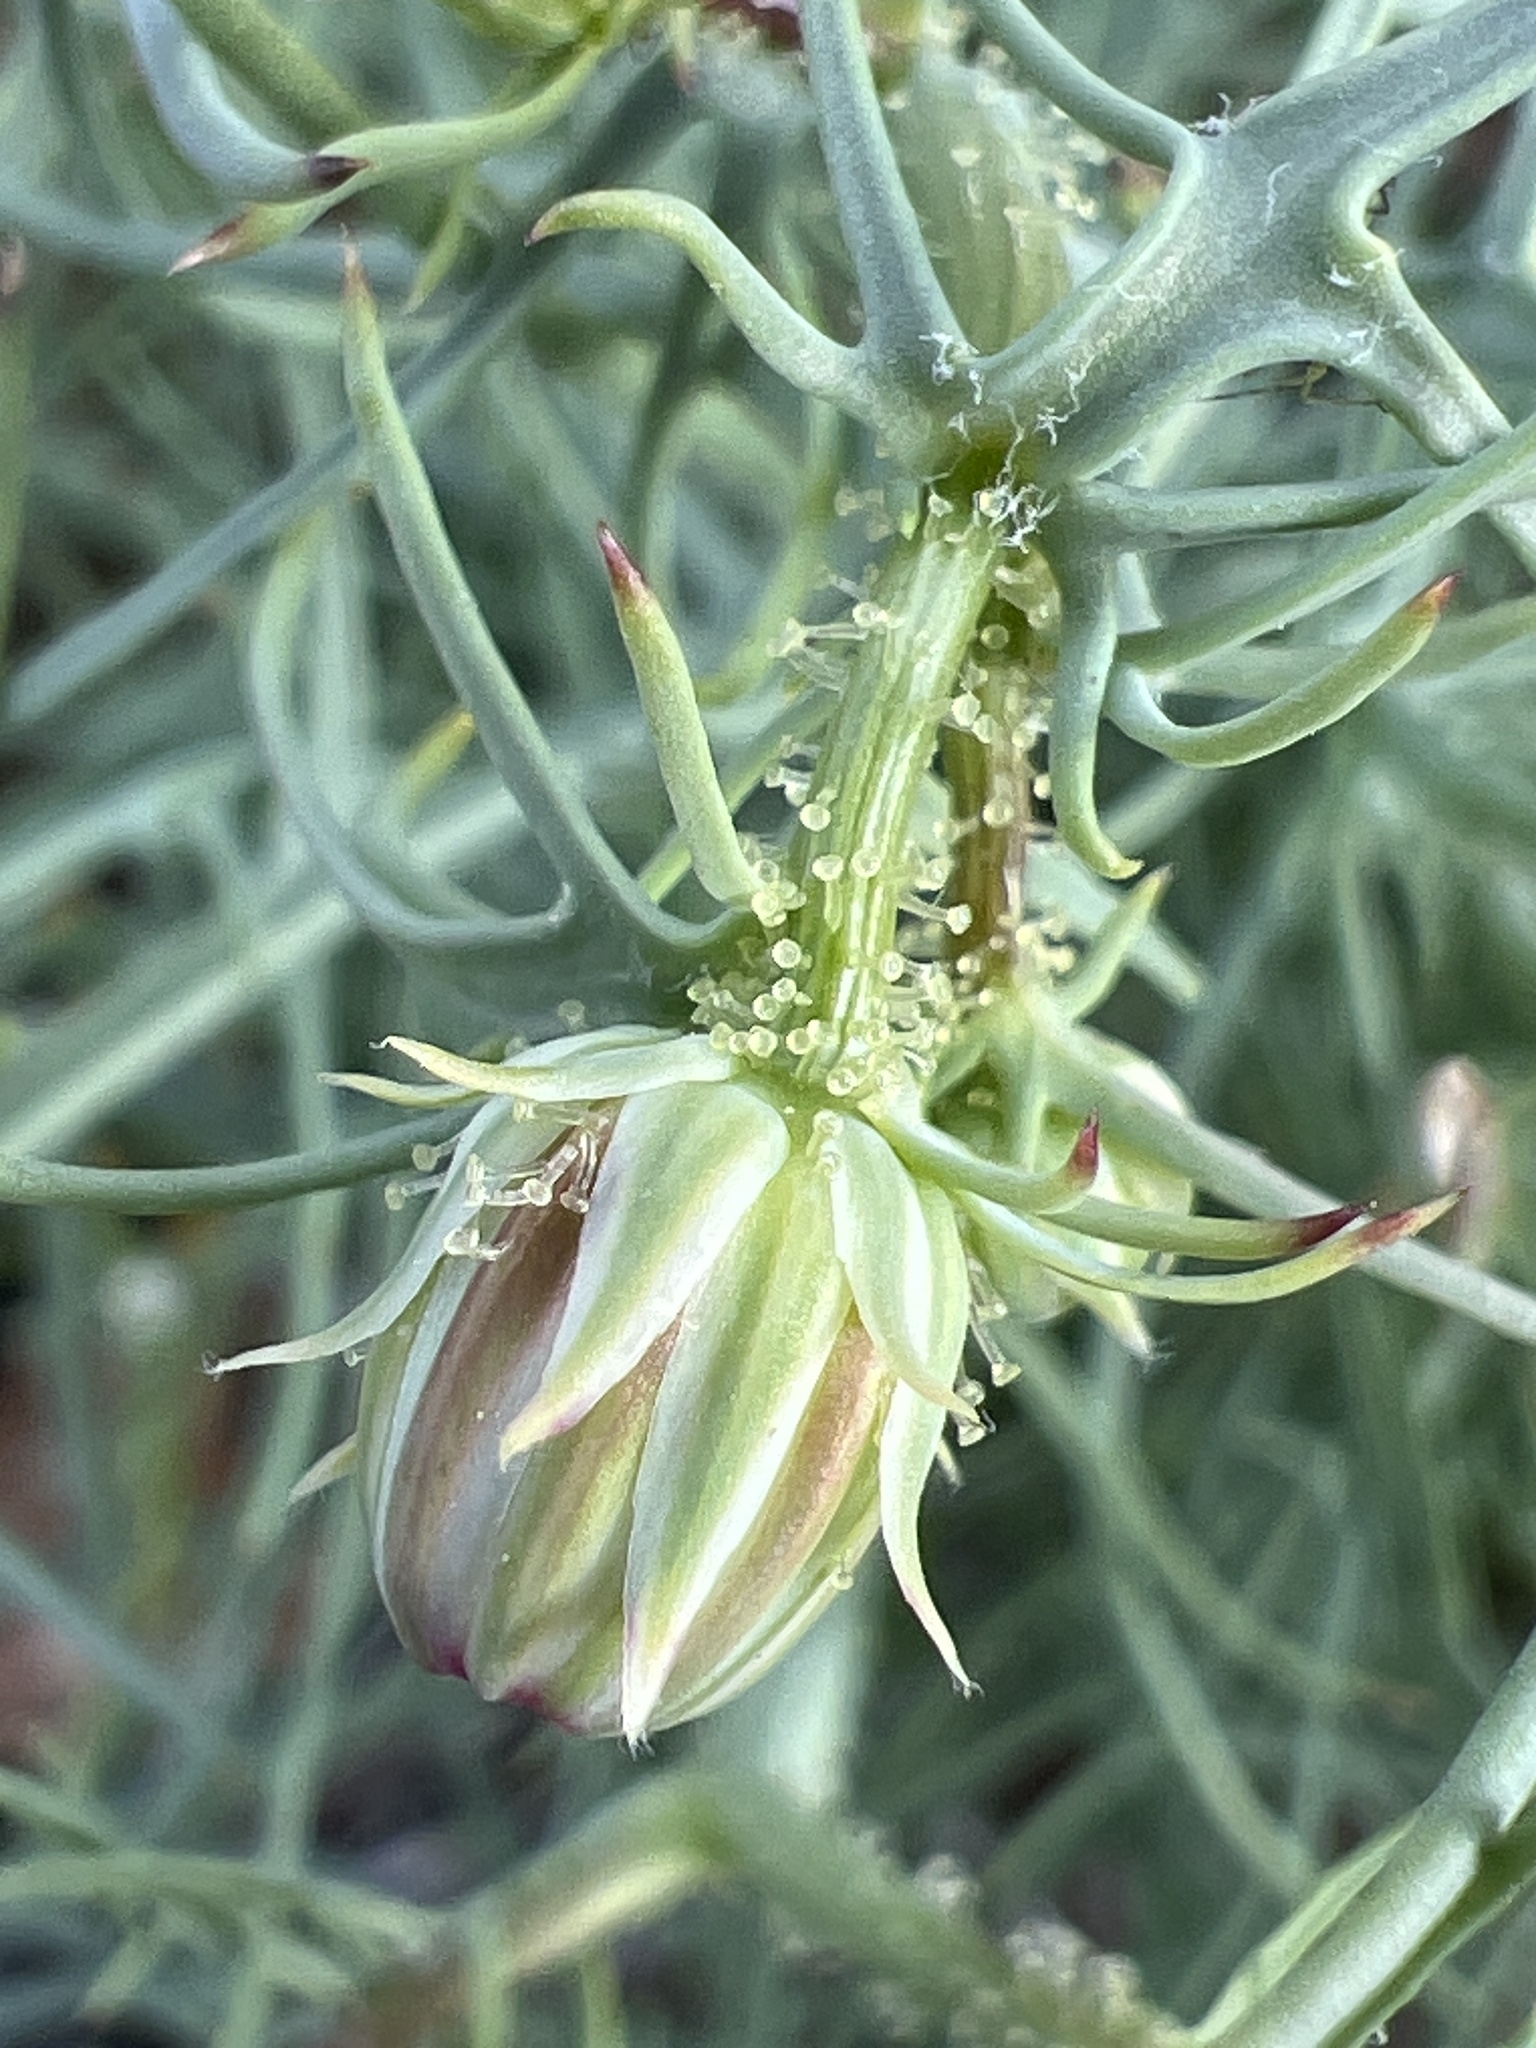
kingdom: Plantae
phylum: Tracheophyta
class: Magnoliopsida
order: Asterales
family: Asteraceae
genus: Calycoseris
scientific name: Calycoseris wrightii
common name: White tackstem
